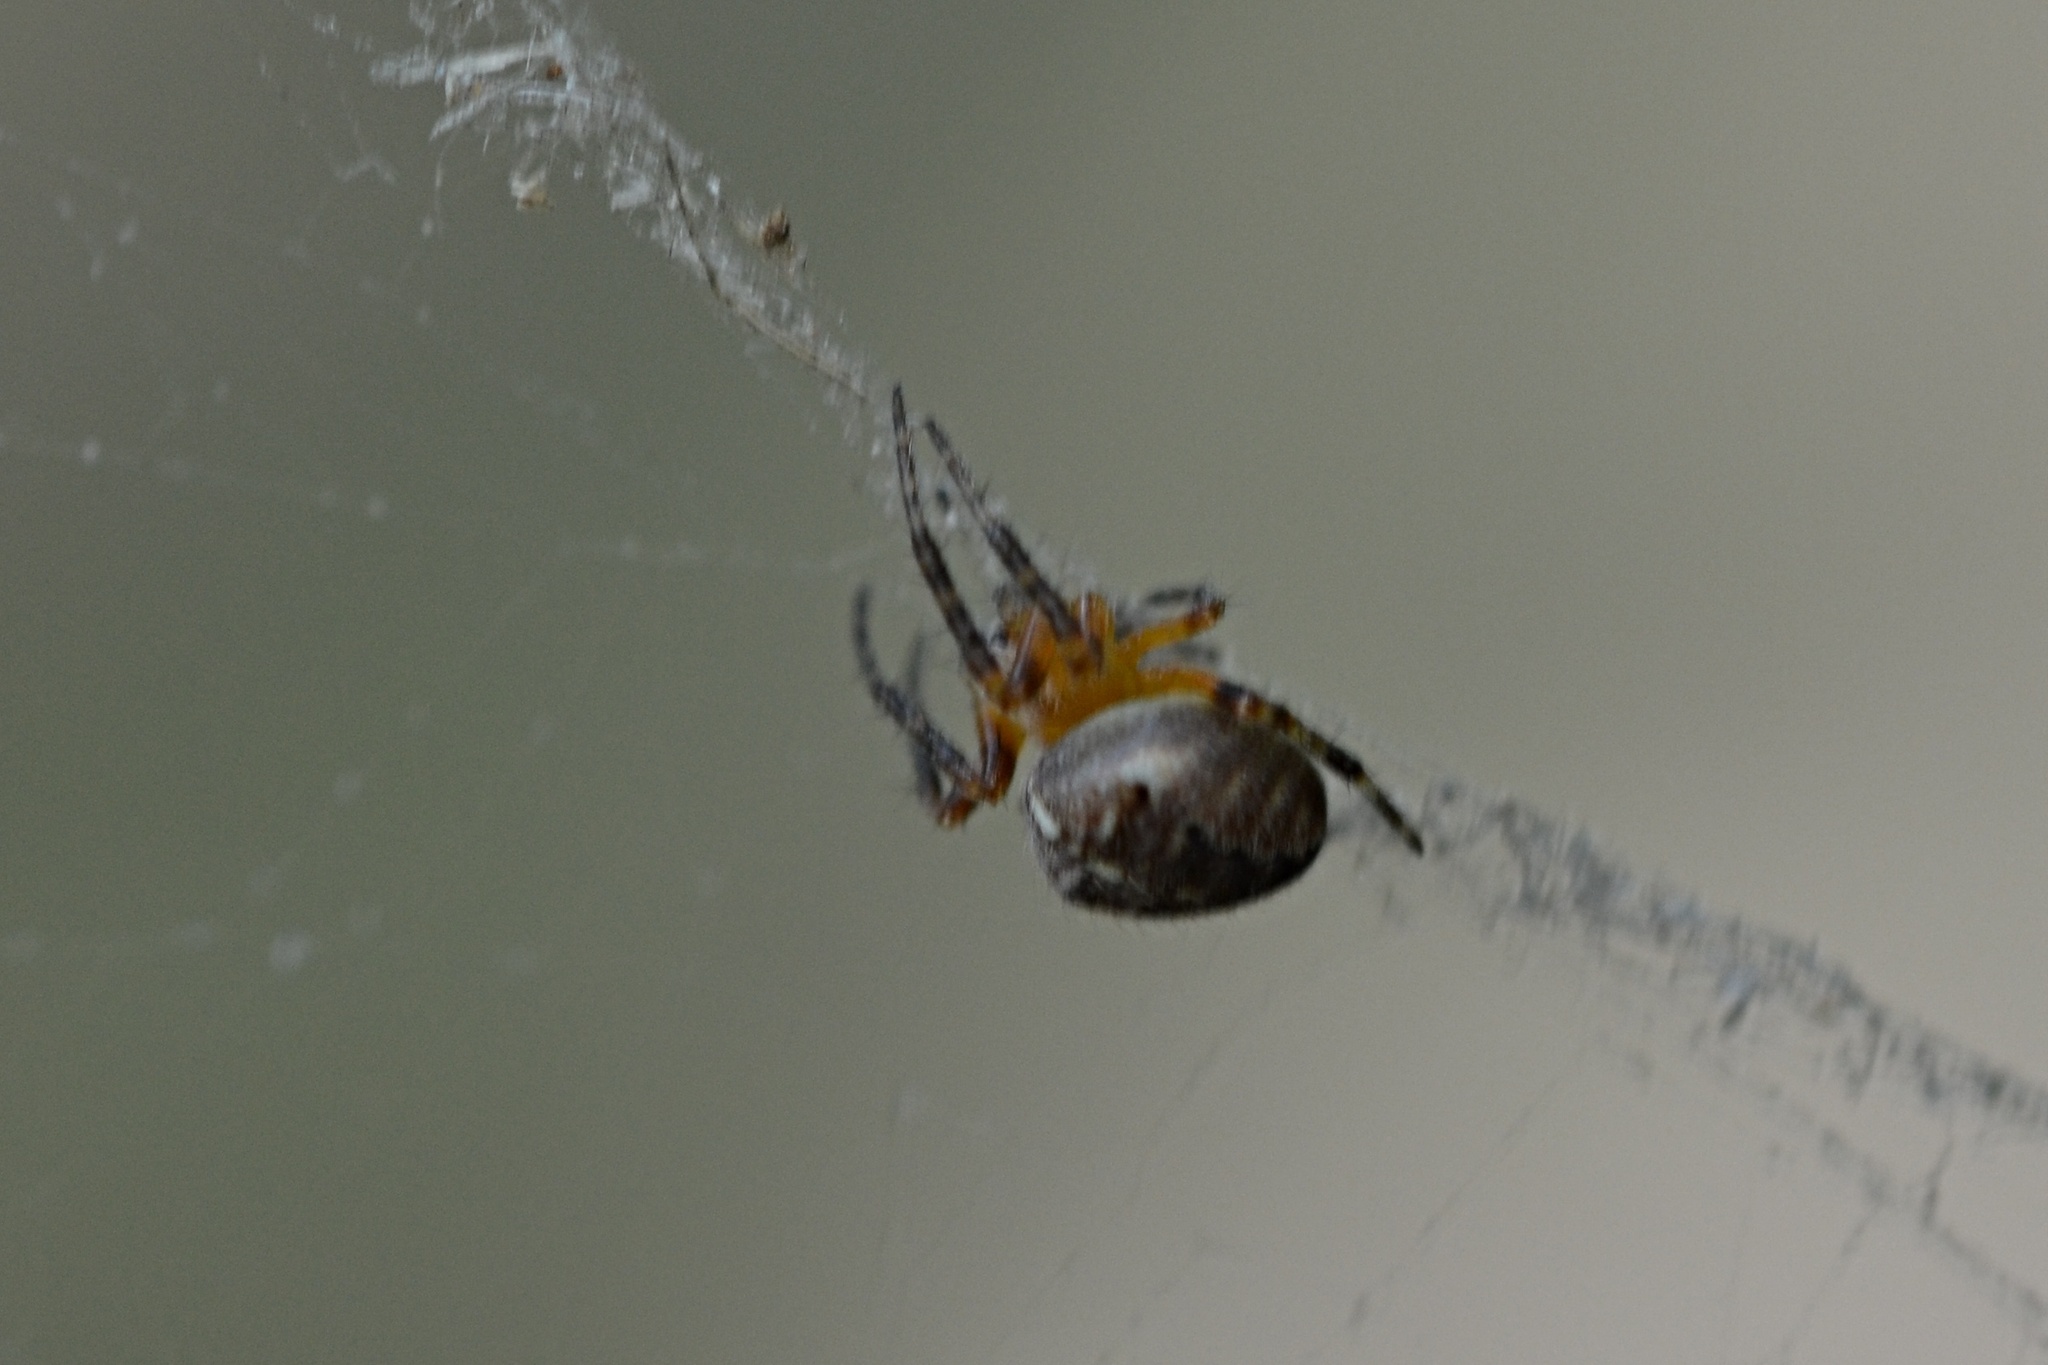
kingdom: Animalia
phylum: Arthropoda
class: Arachnida
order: Araneae
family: Araneidae
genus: Araneus
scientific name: Araneus diadematus
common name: Cross orbweaver
